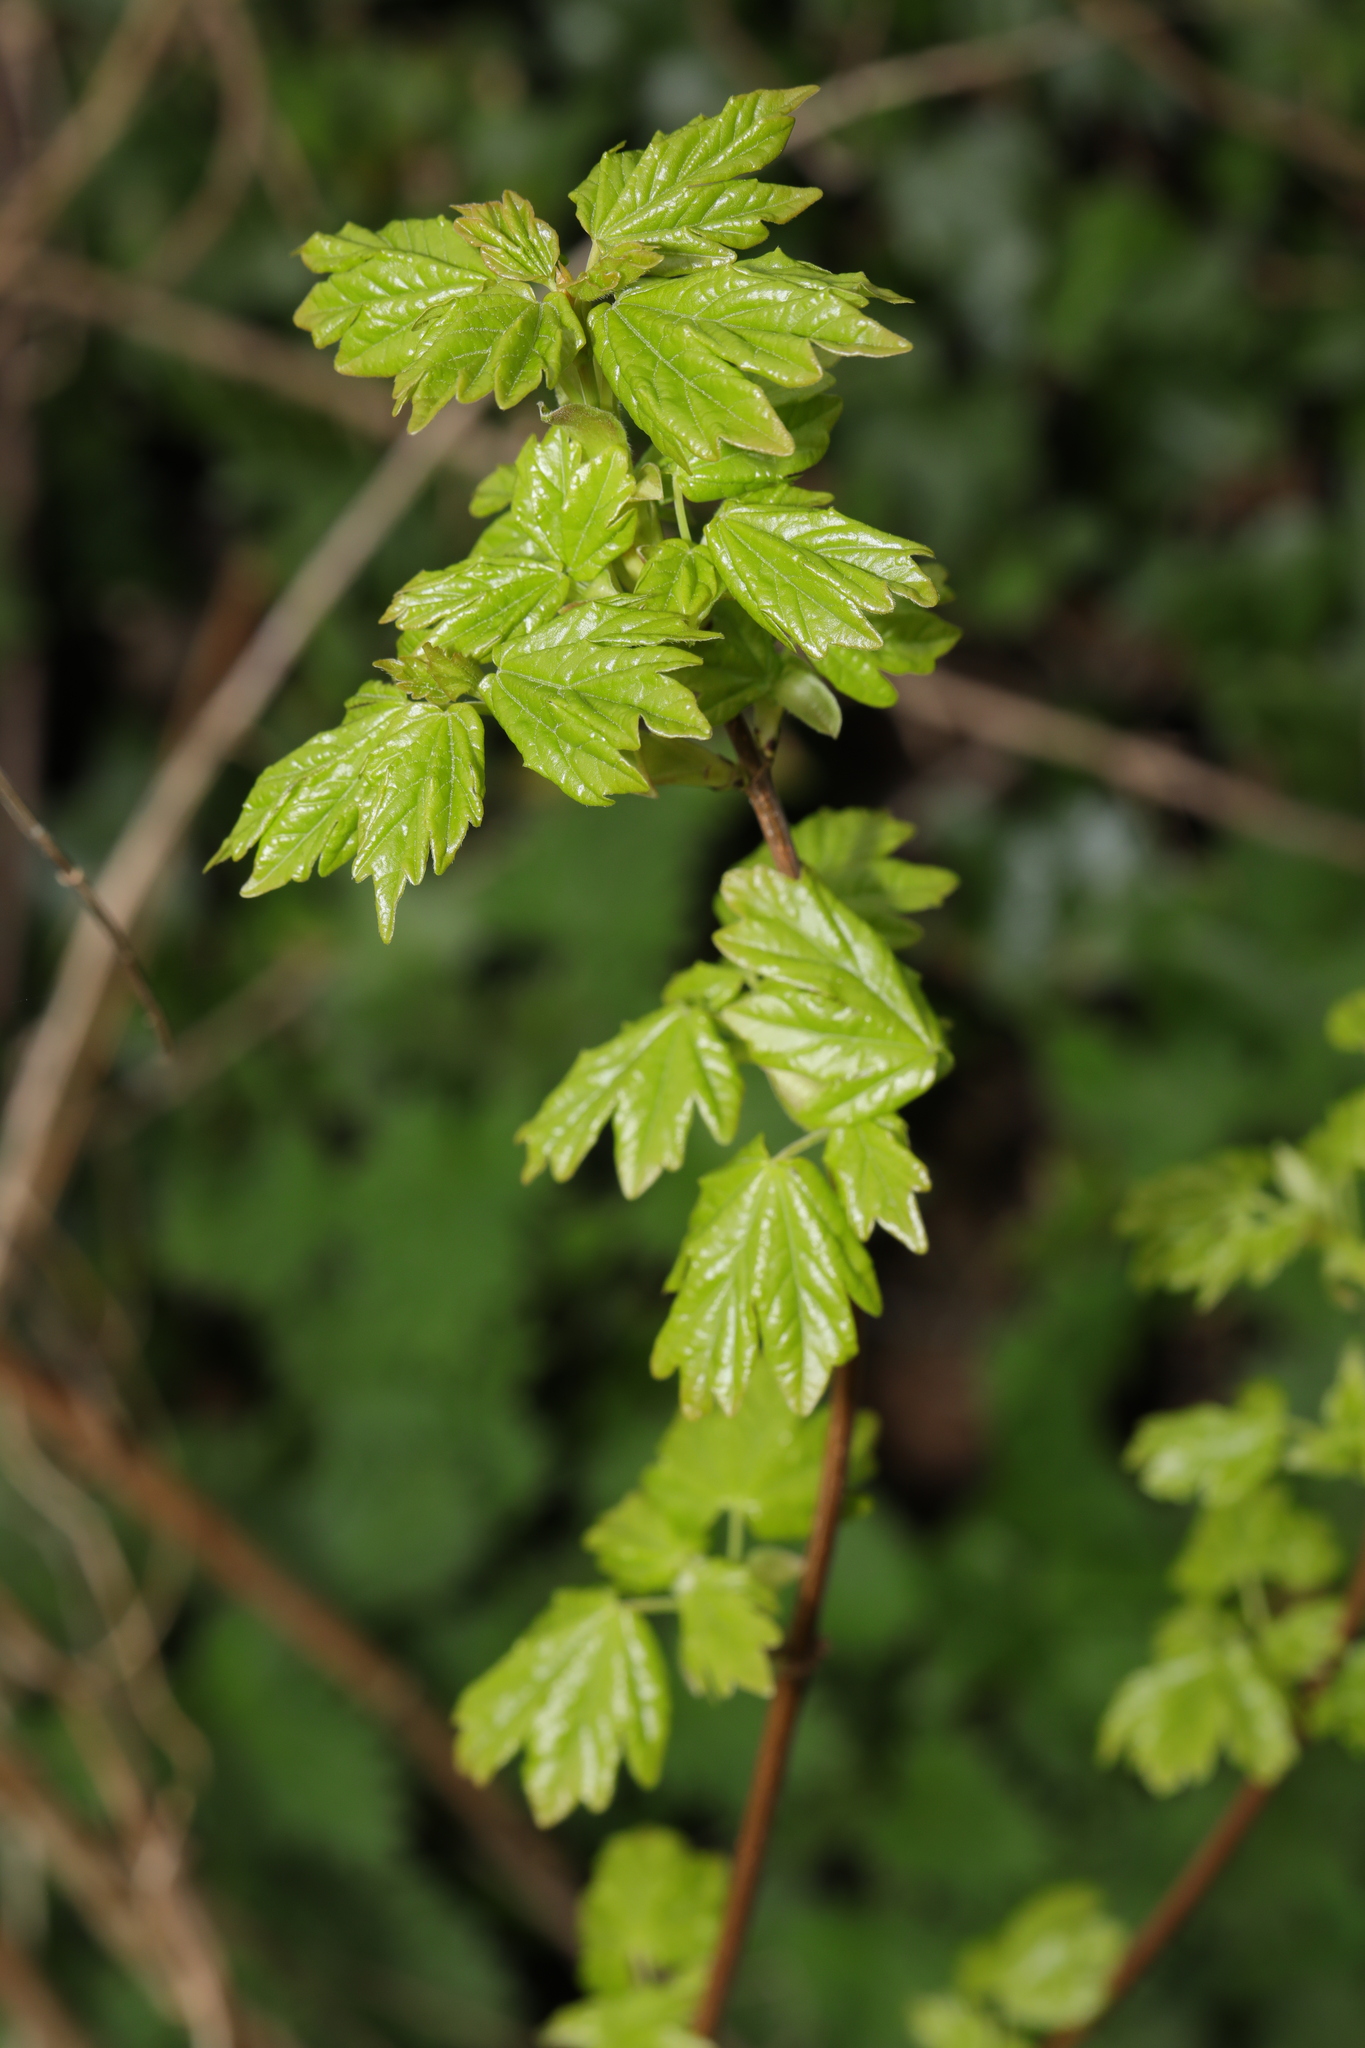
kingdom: Plantae
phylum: Tracheophyta
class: Magnoliopsida
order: Sapindales
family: Sapindaceae
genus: Acer
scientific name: Acer campestre
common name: Field maple
